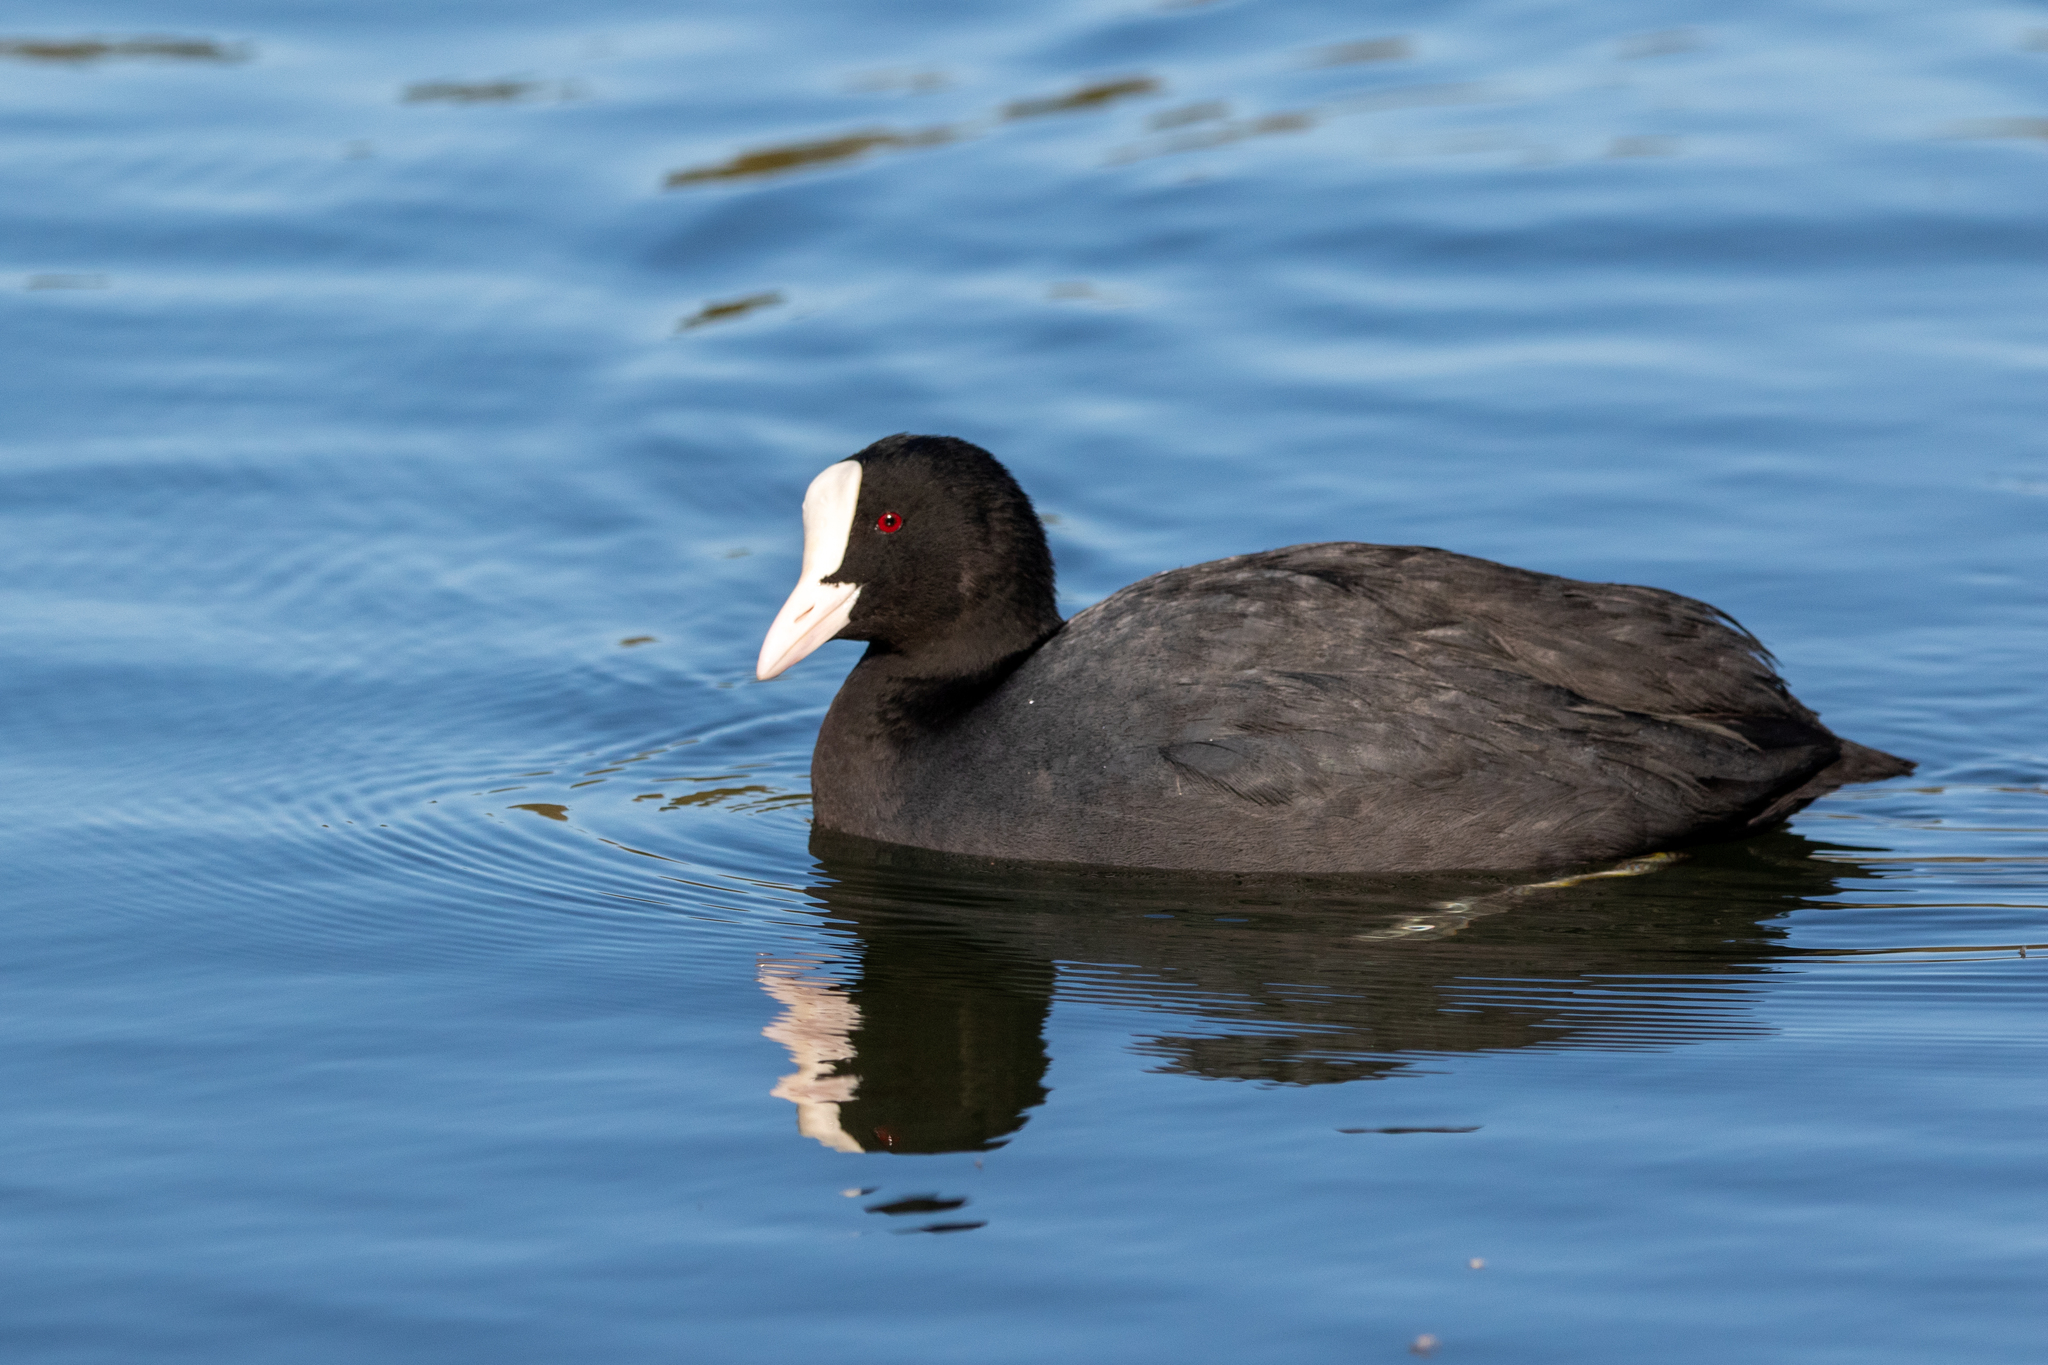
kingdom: Animalia
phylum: Chordata
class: Aves
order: Gruiformes
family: Rallidae
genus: Fulica
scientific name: Fulica atra
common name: Eurasian coot
